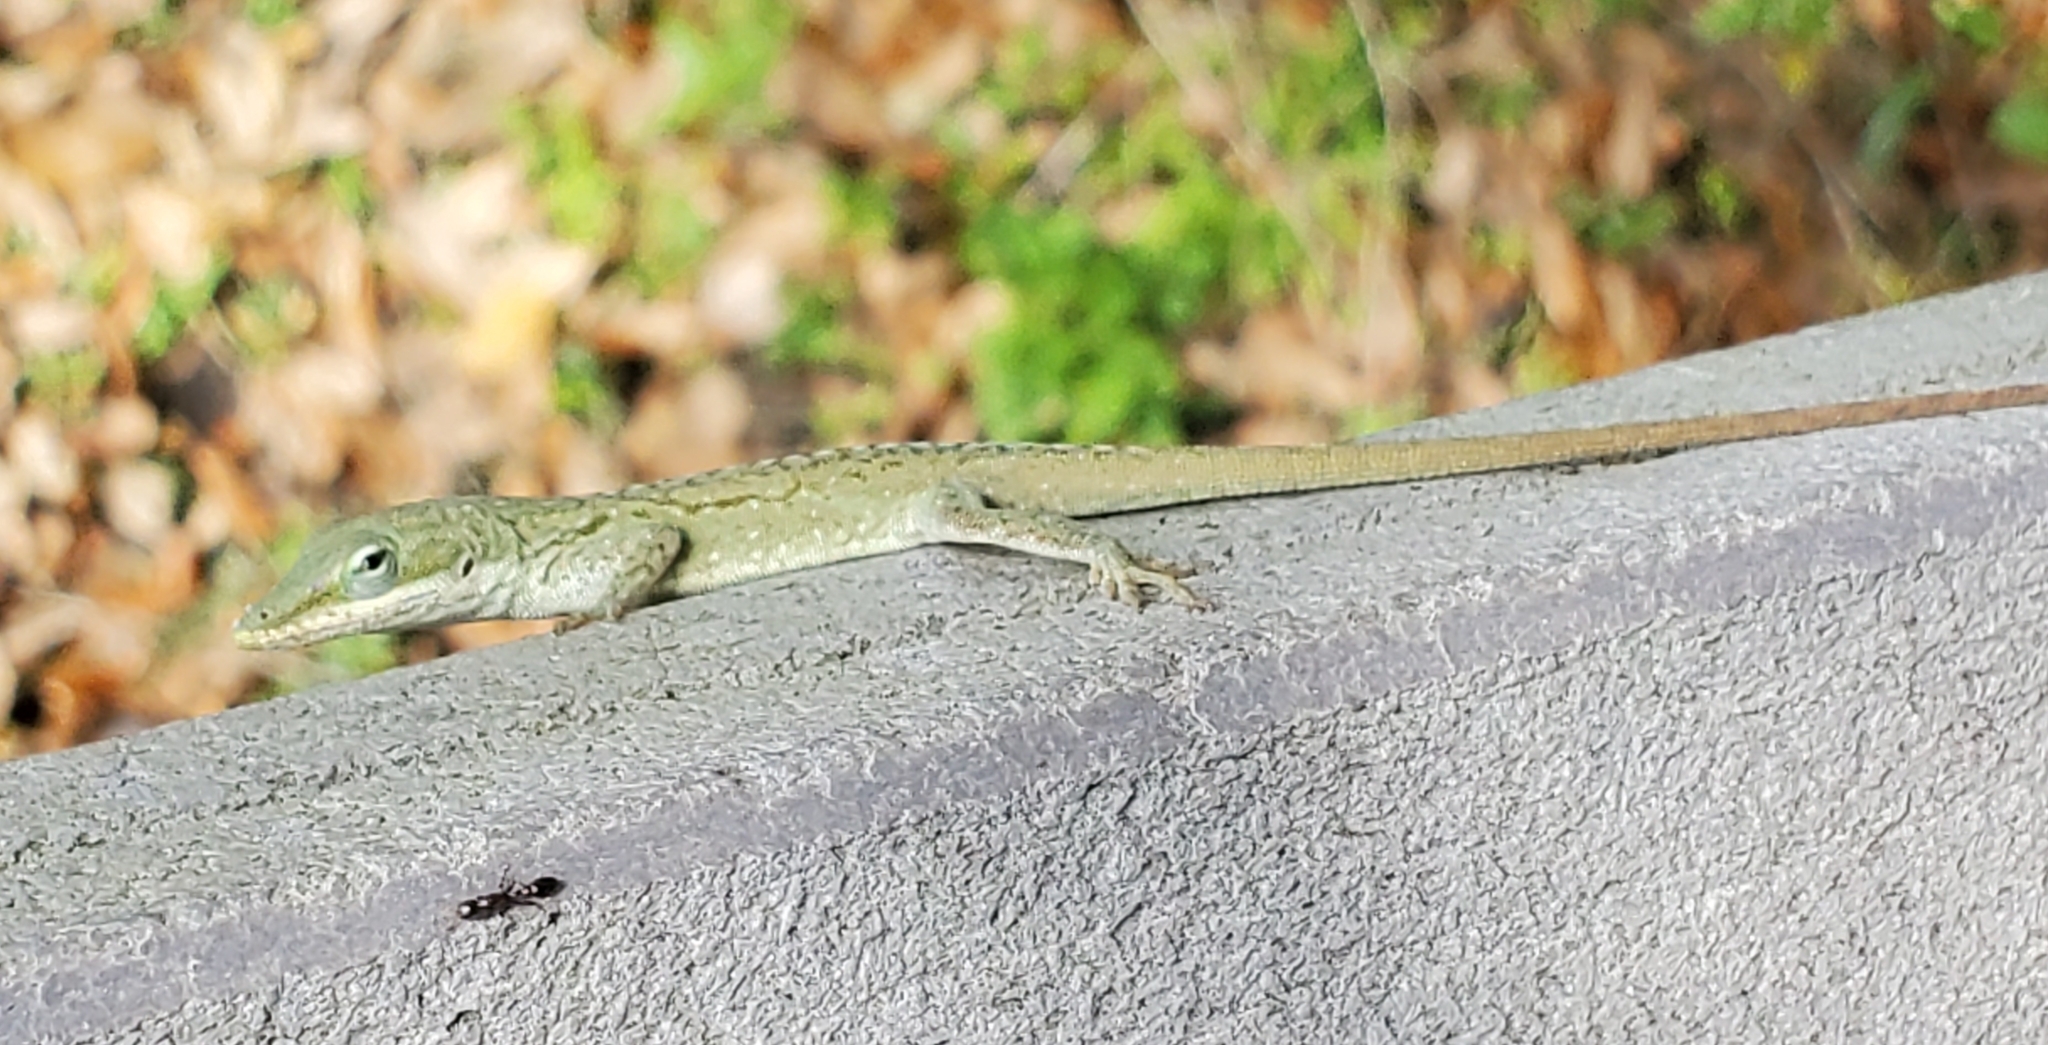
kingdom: Animalia
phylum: Chordata
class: Squamata
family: Dactyloidae
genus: Anolis
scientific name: Anolis carolinensis
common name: Green anole
